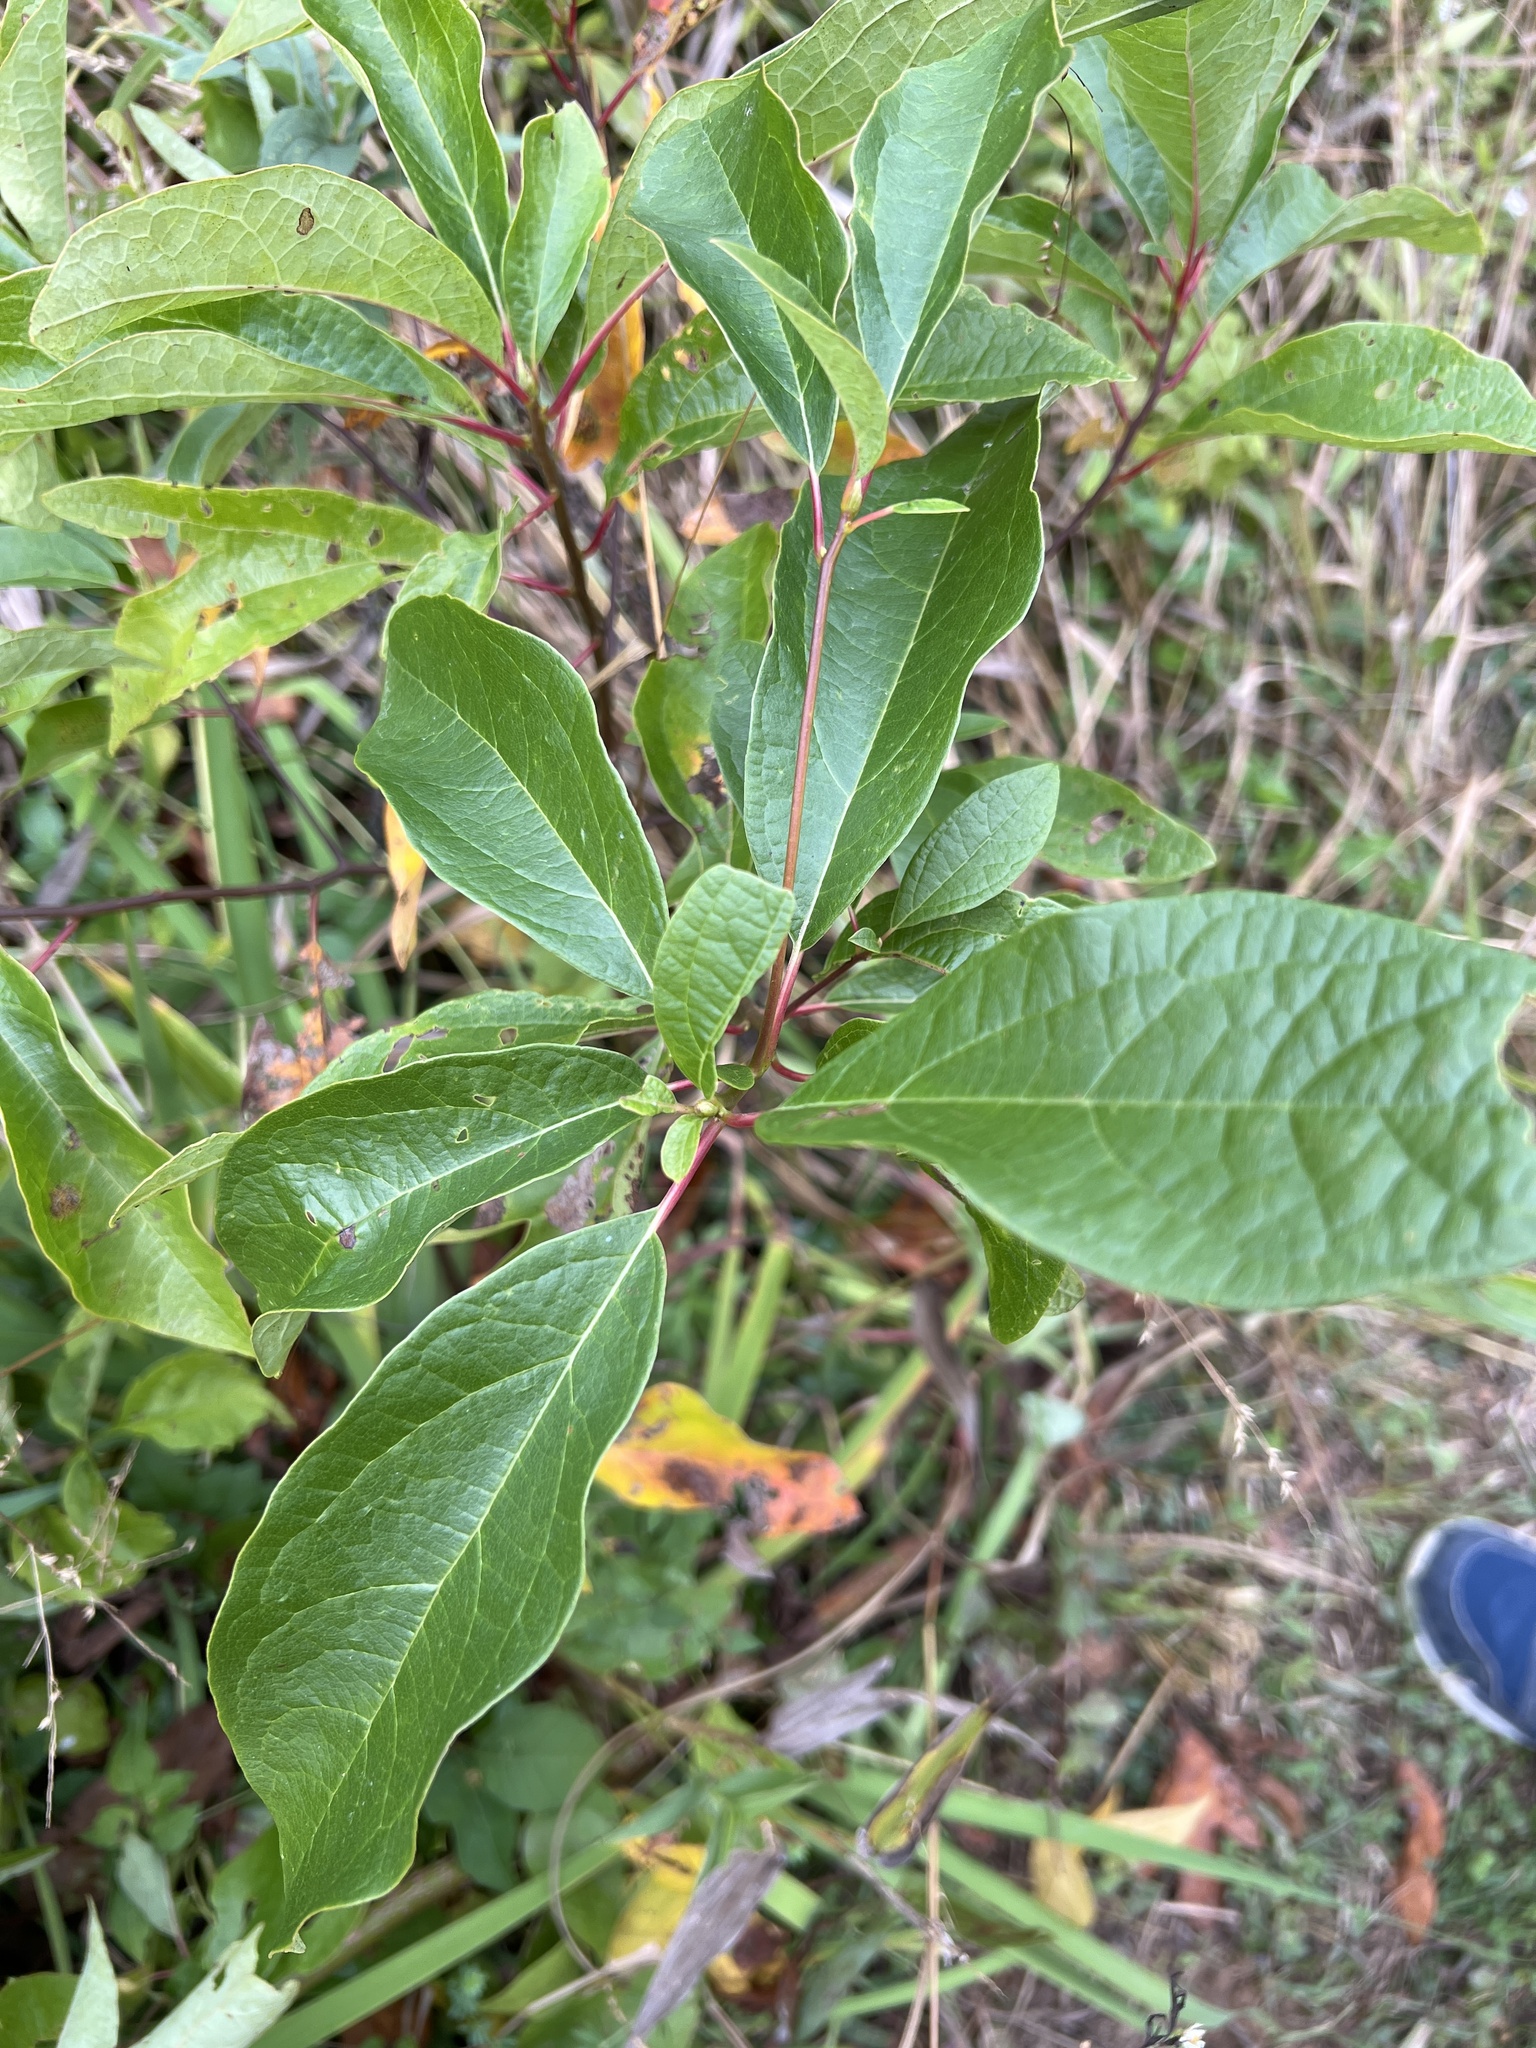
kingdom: Plantae
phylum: Tracheophyta
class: Magnoliopsida
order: Laurales
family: Lauraceae
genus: Sassafras
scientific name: Sassafras albidum
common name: Sassafras
